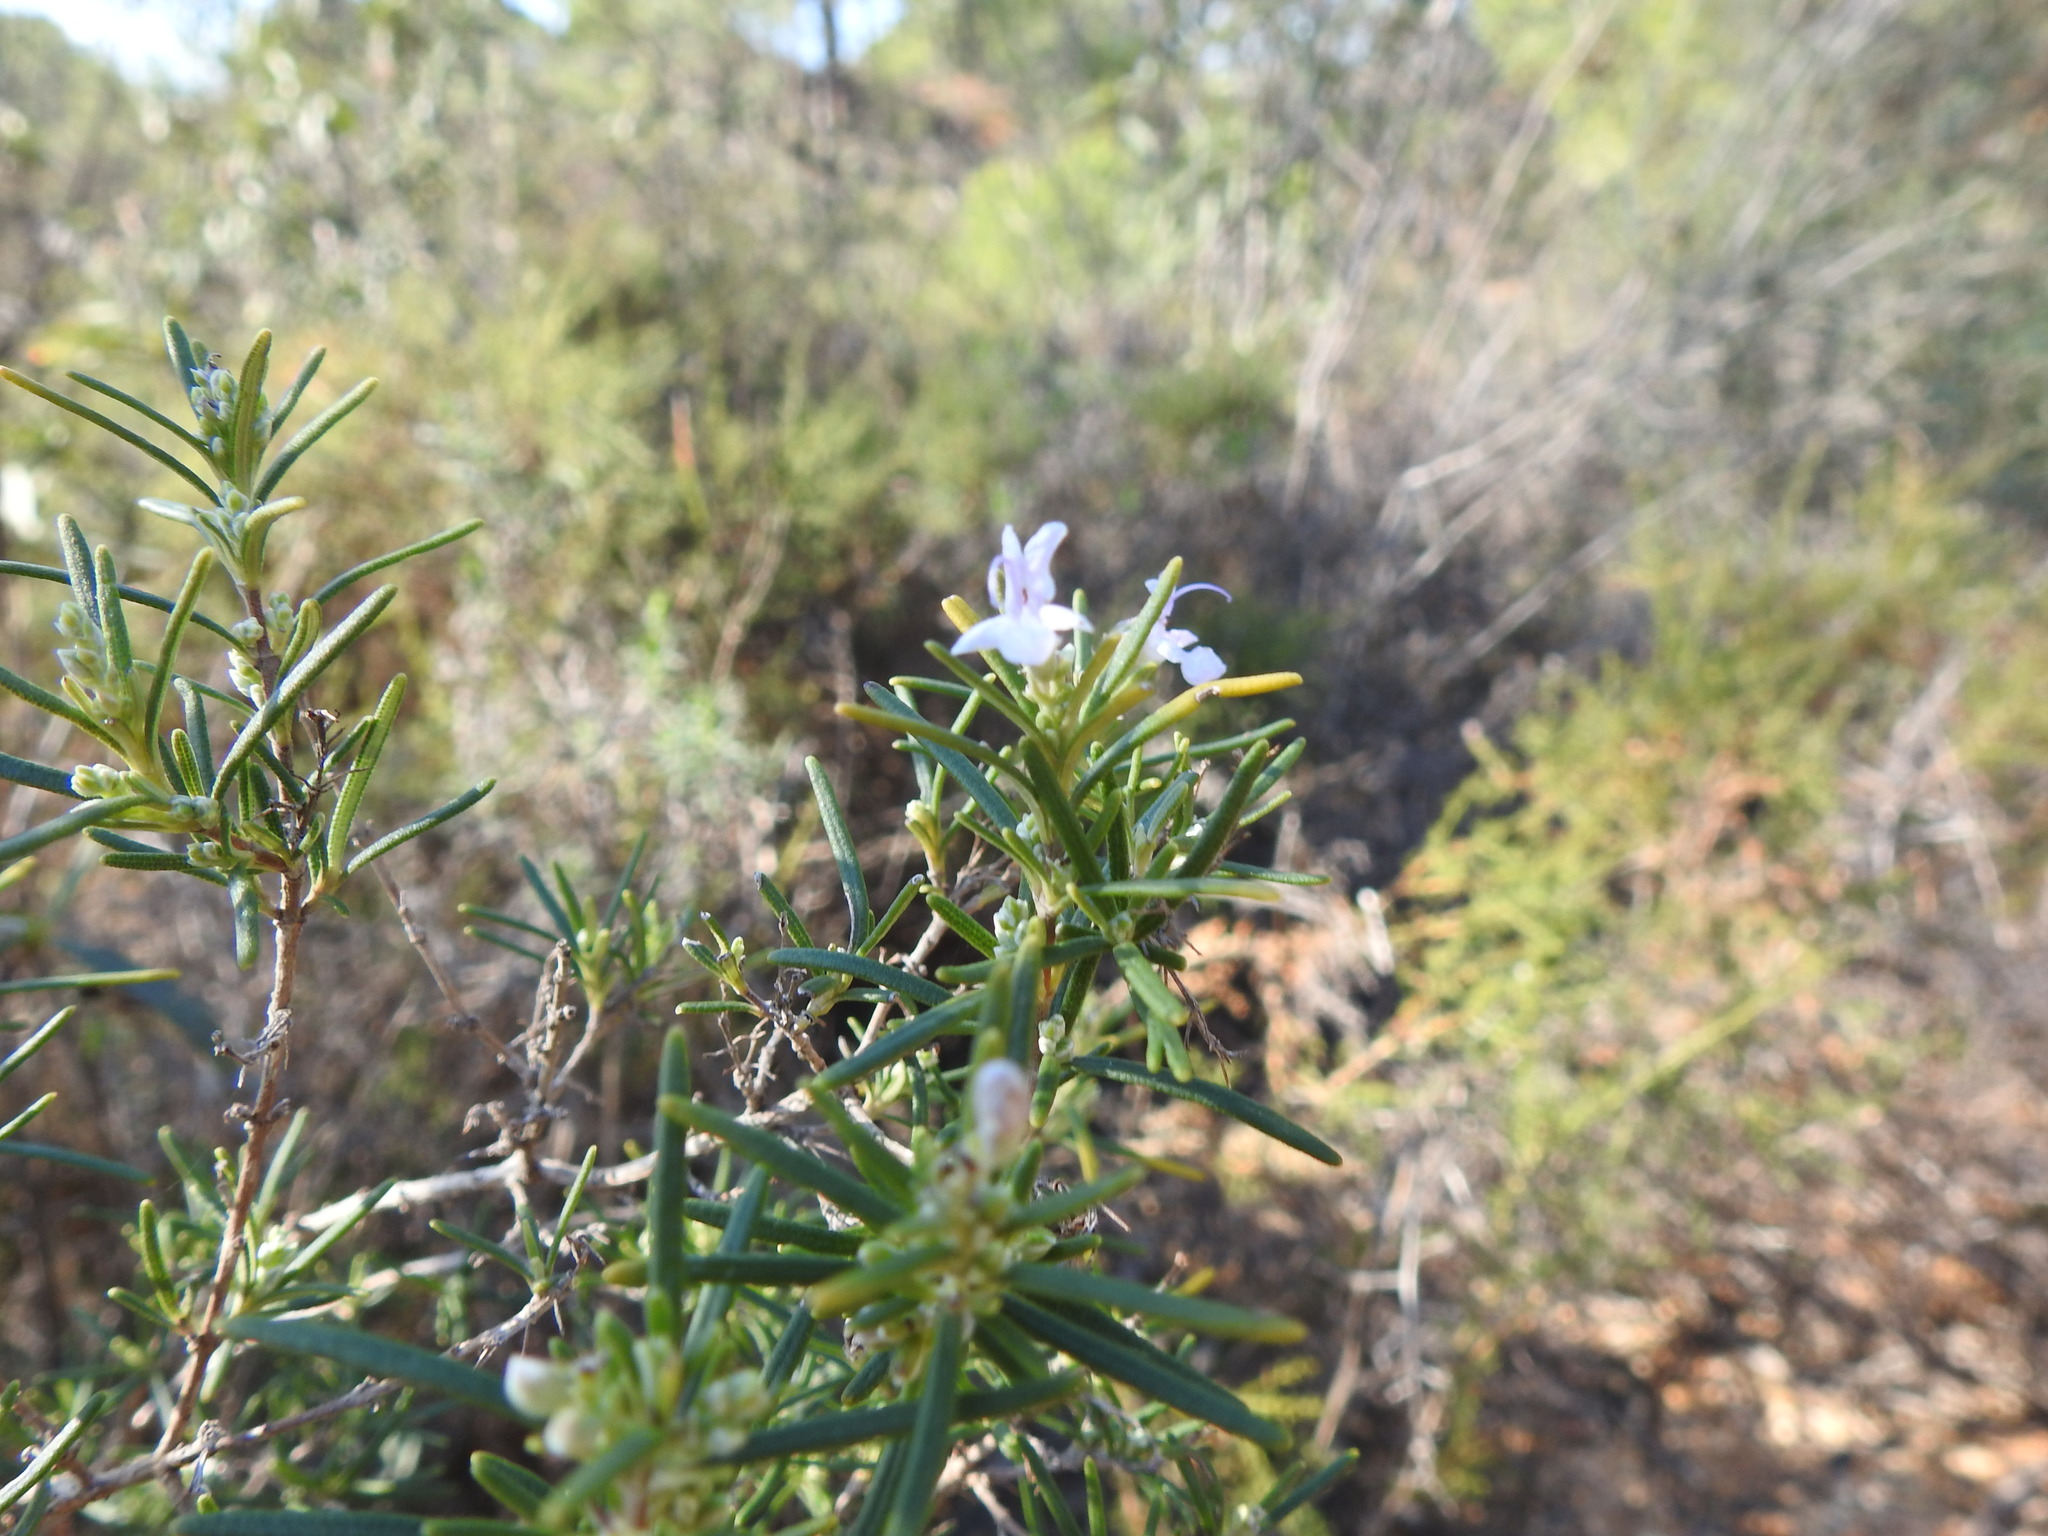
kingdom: Plantae
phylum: Tracheophyta
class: Magnoliopsida
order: Lamiales
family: Lamiaceae
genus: Salvia
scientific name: Salvia rosmarinus
